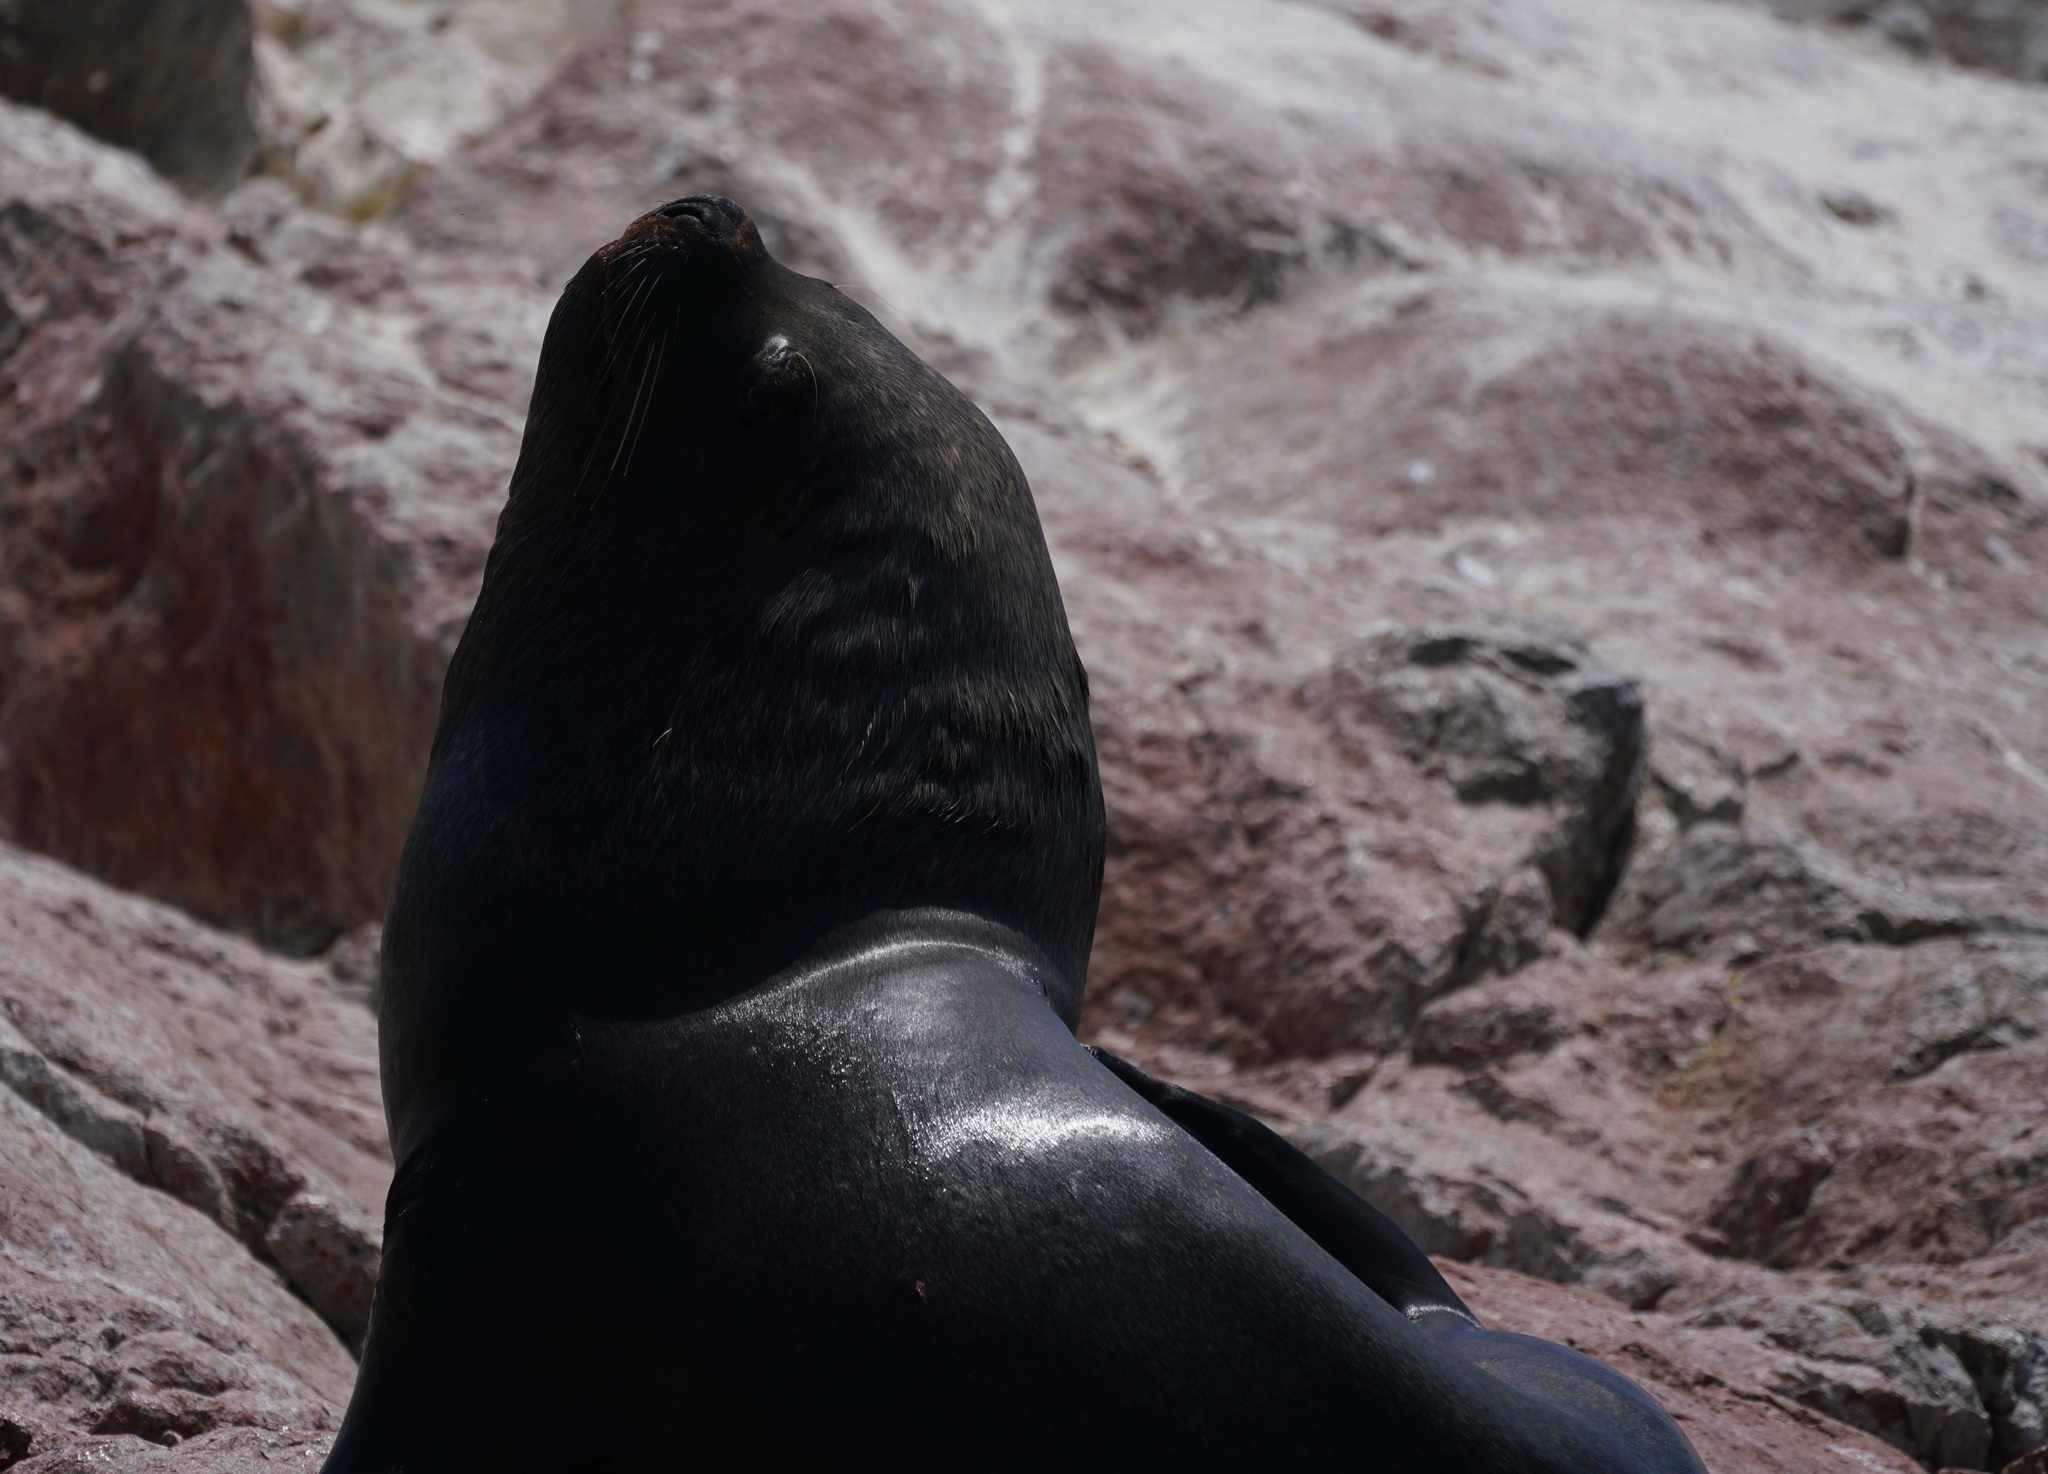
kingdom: Animalia
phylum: Chordata
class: Mammalia
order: Carnivora
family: Otariidae
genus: Otaria
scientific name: Otaria byronia
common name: South american sea lion
